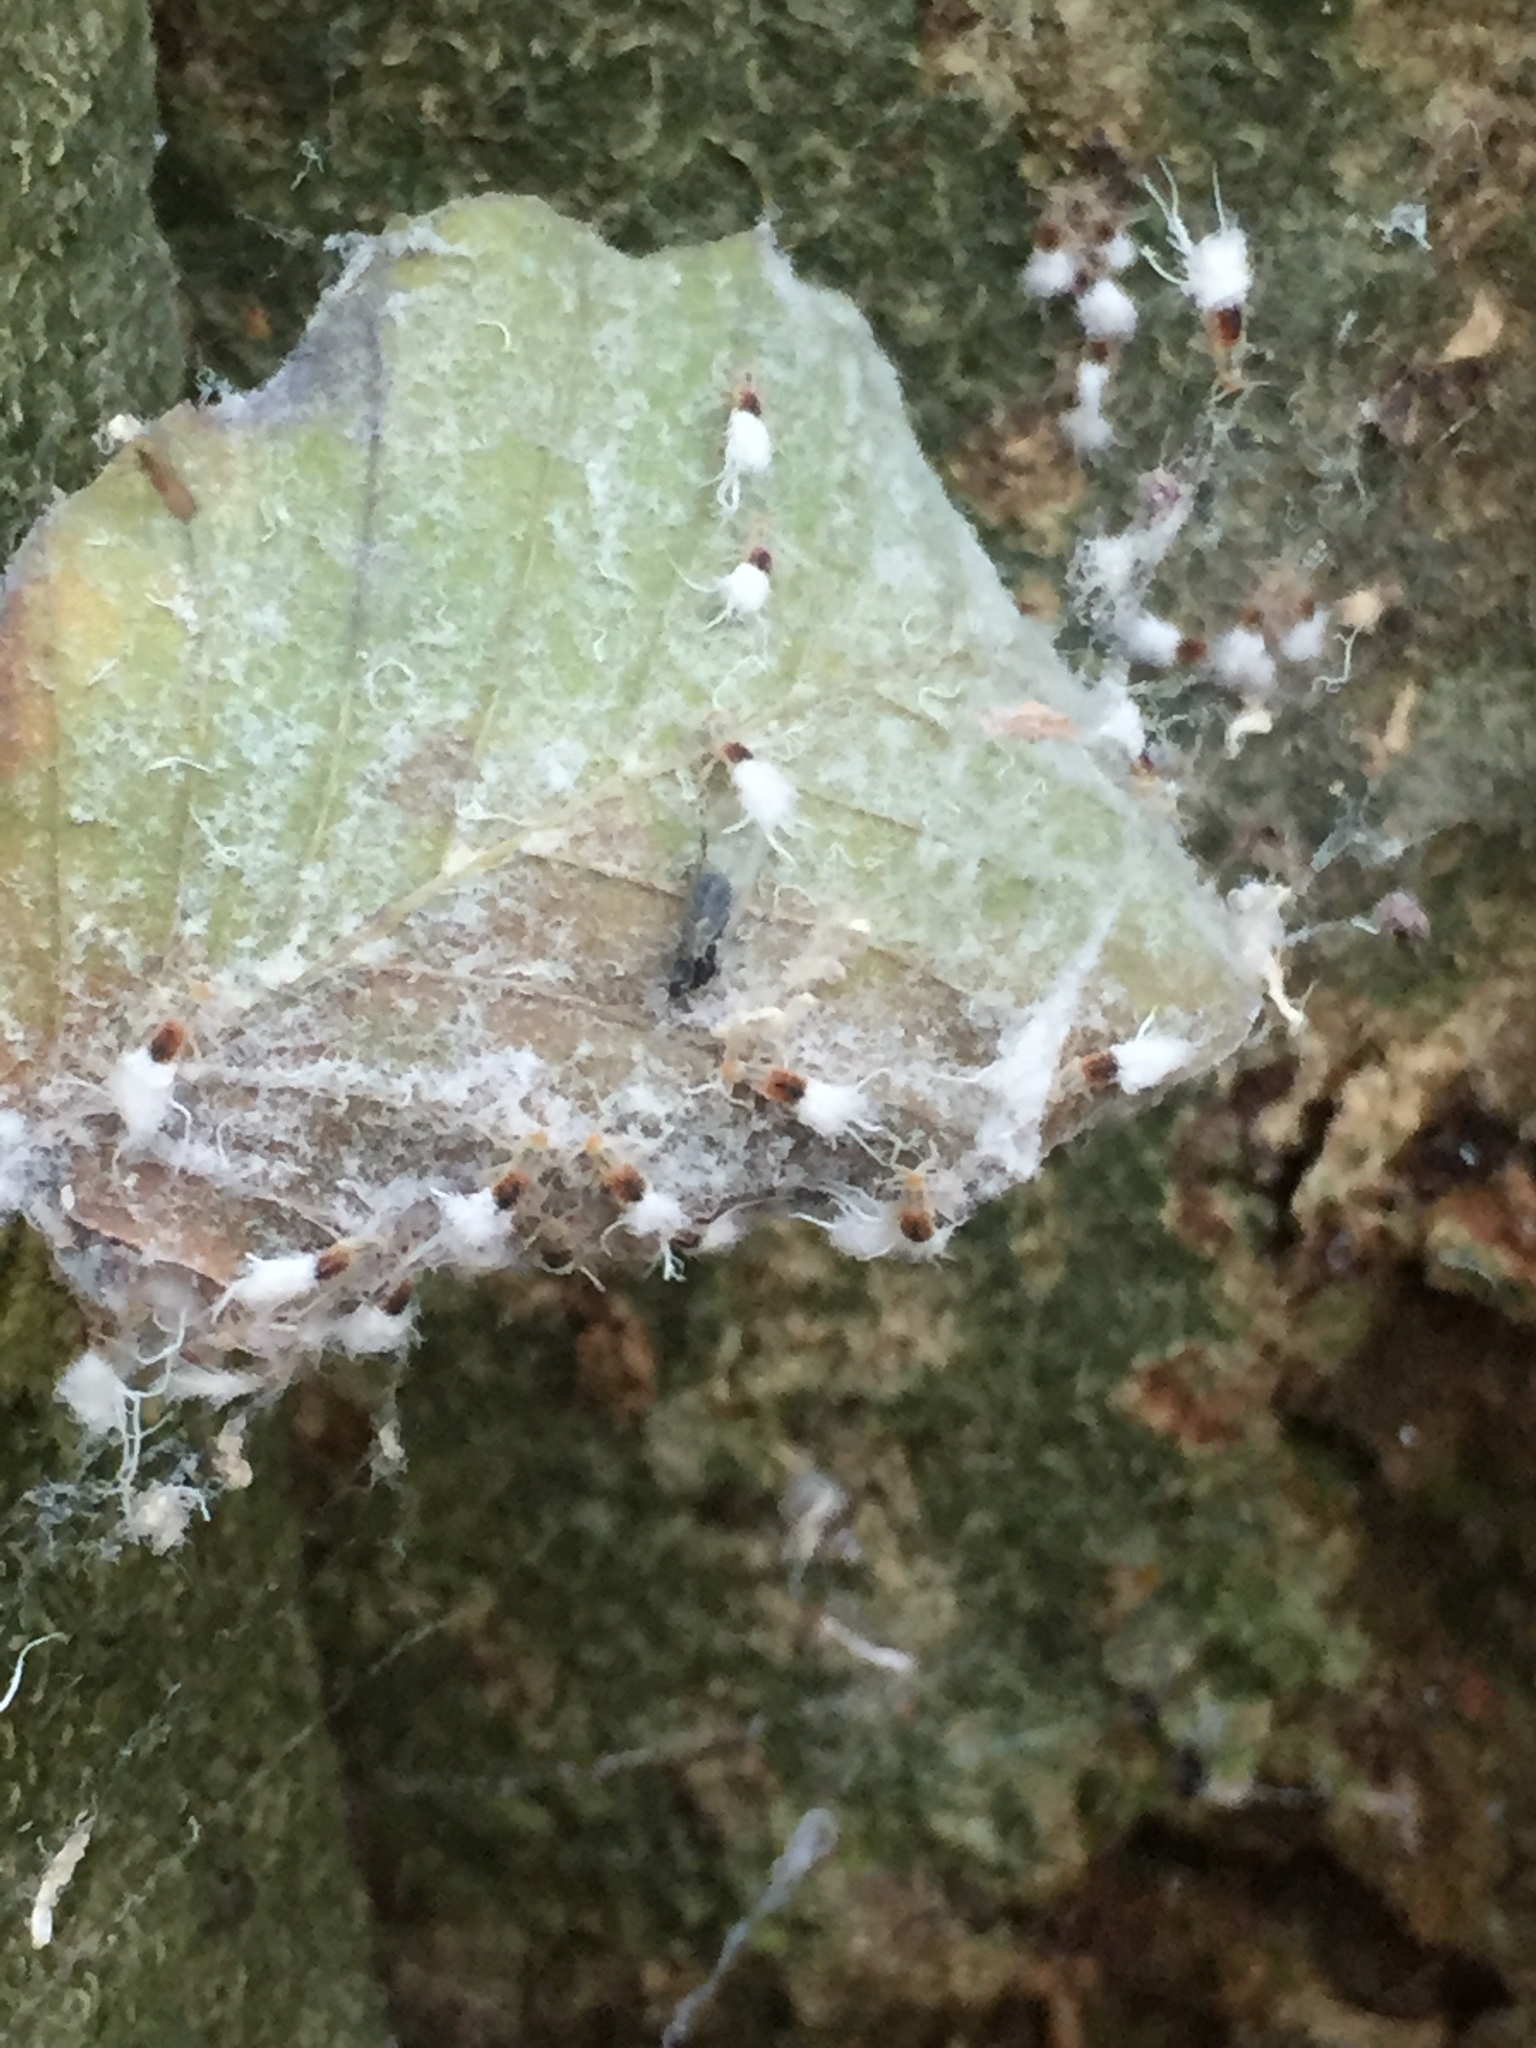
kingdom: Animalia
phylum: Arthropoda
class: Insecta
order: Hemiptera
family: Aphididae
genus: Grylloprociphilus
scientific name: Grylloprociphilus imbricator
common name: Beech blight aphid
